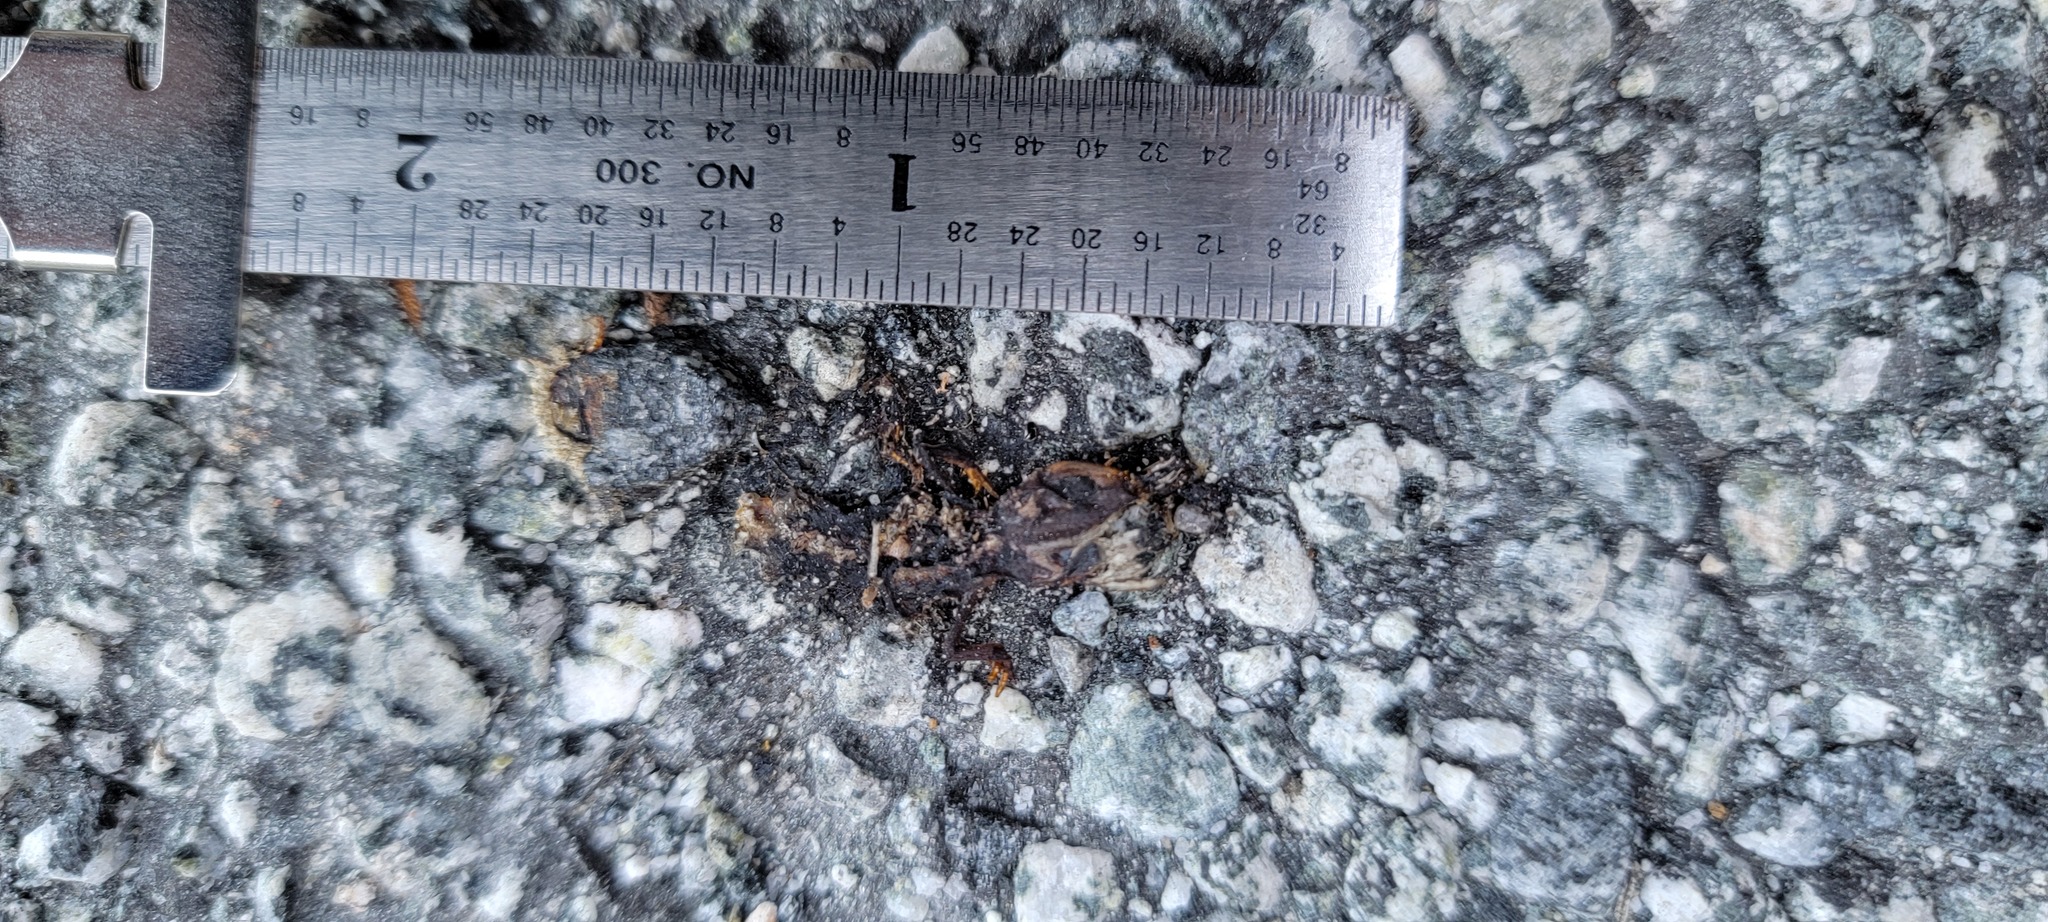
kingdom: Animalia
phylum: Chordata
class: Amphibia
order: Caudata
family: Salamandridae
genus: Taricha
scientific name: Taricha
